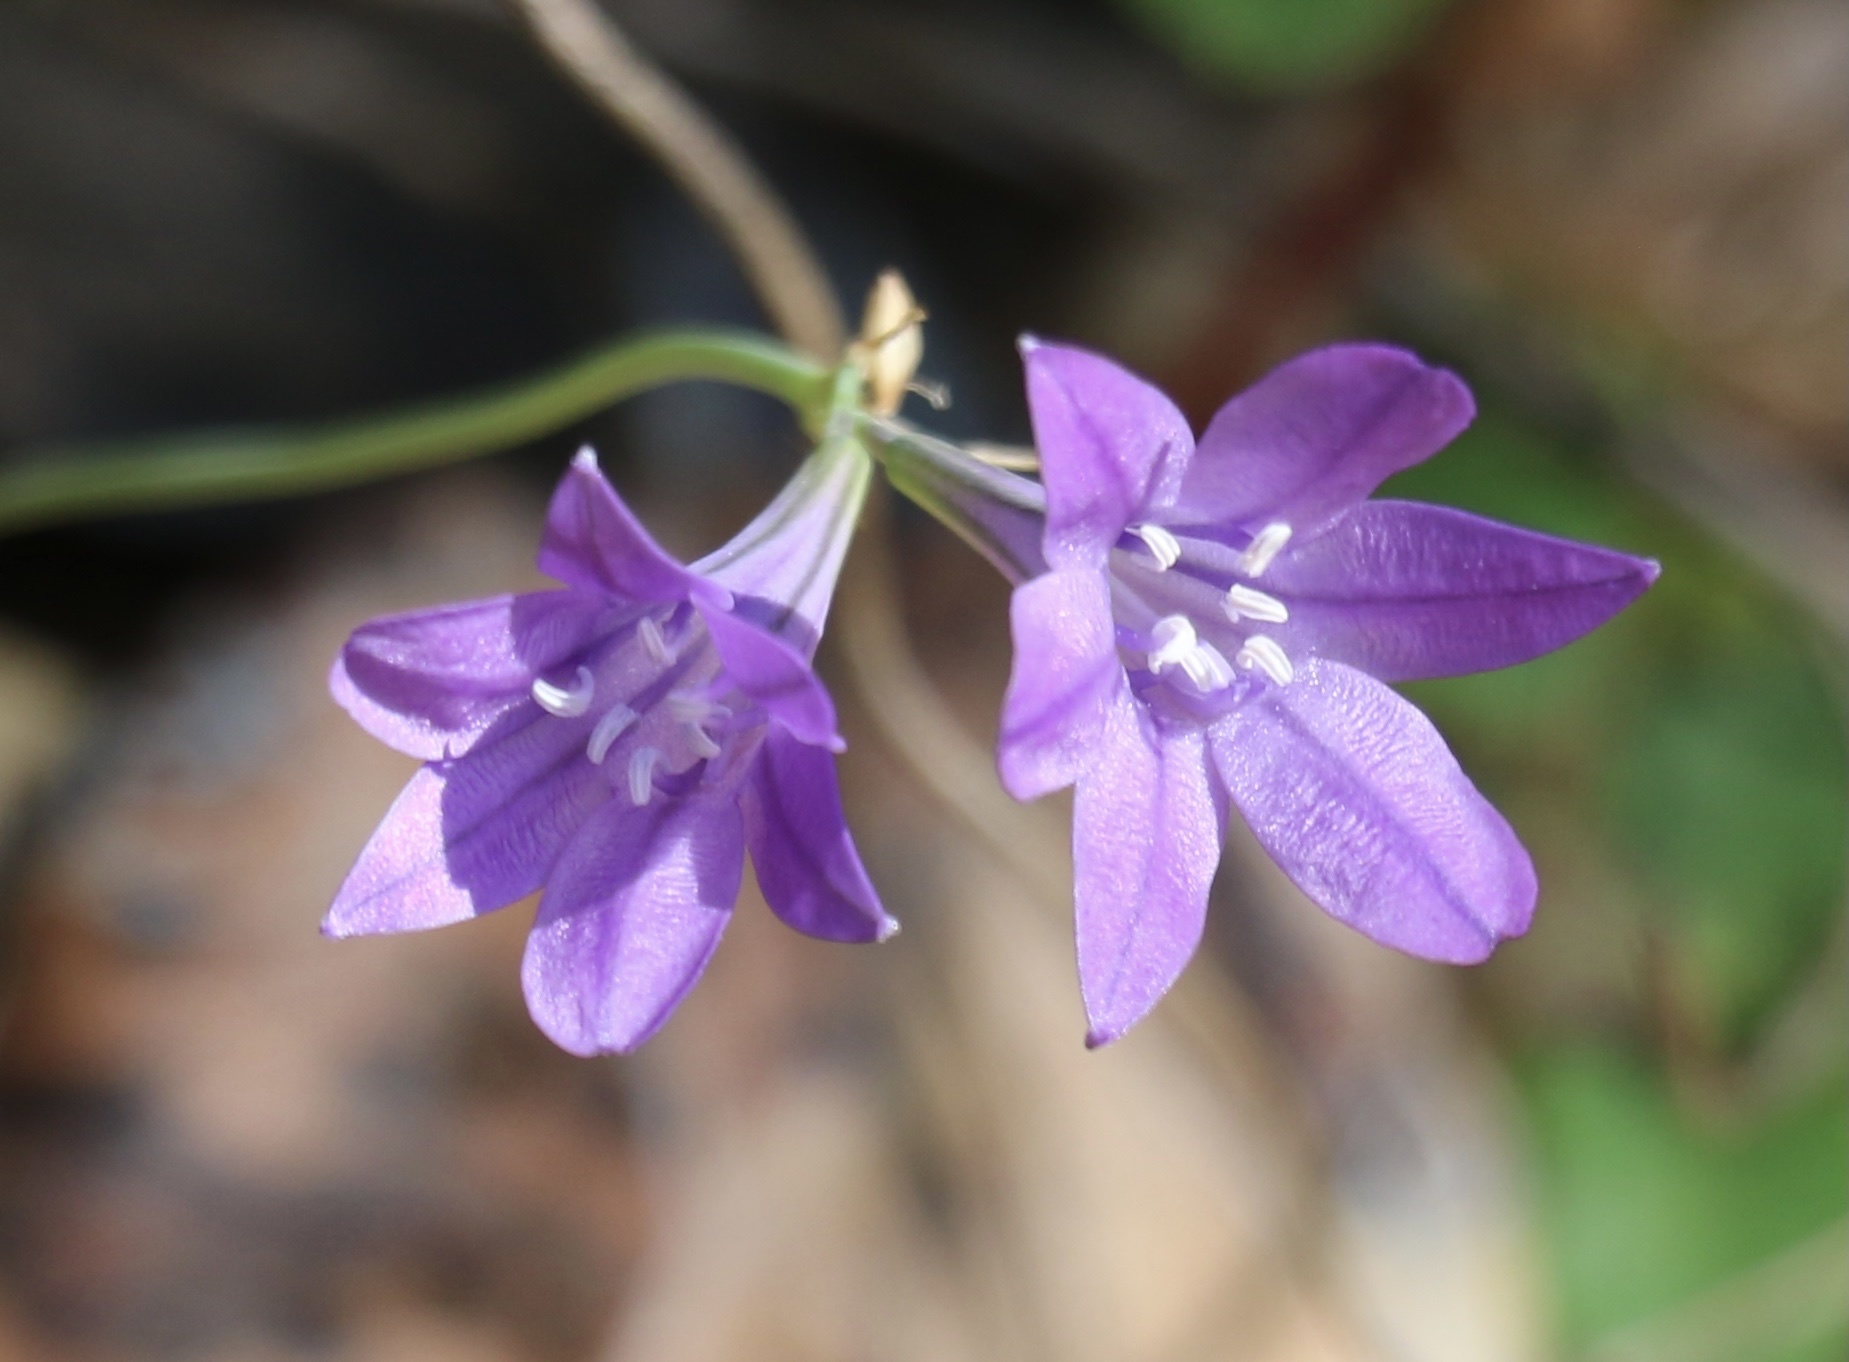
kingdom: Plantae
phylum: Tracheophyta
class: Liliopsida
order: Asparagales
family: Asparagaceae
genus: Triteleia
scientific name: Triteleia laxa
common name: Triplet-lily
